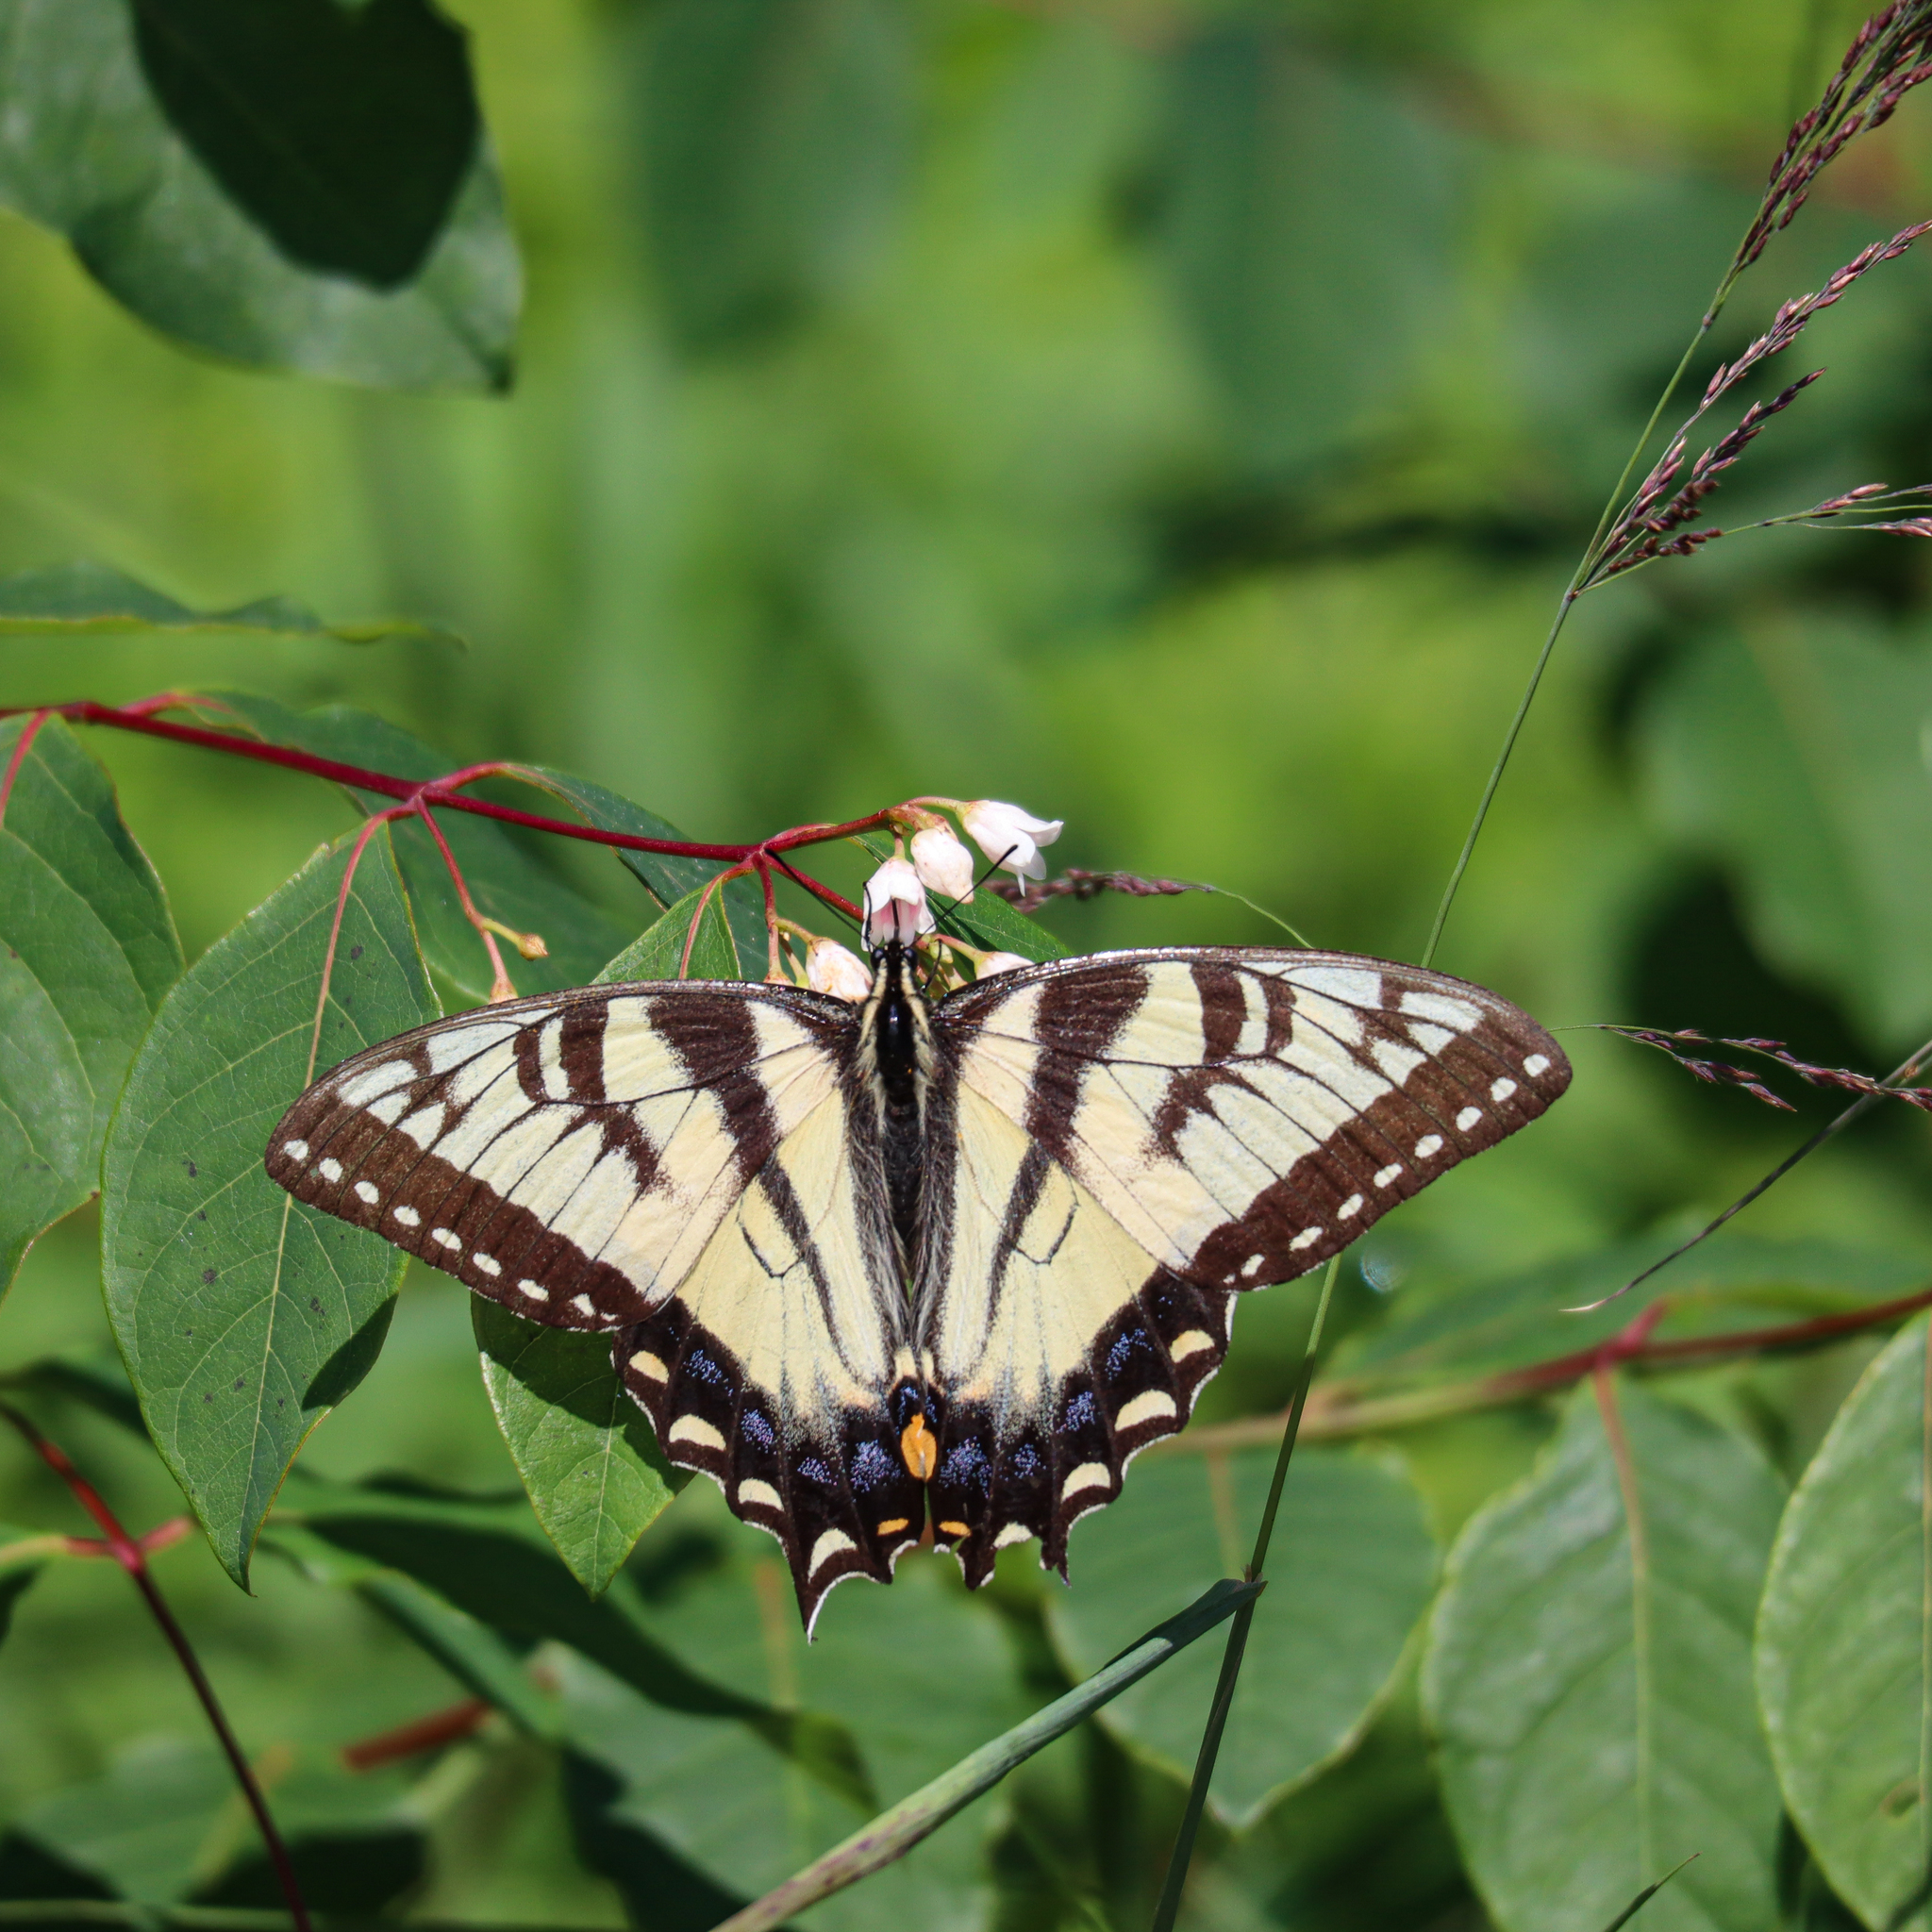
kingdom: Animalia
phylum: Arthropoda
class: Insecta
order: Lepidoptera
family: Papilionidae
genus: Papilio
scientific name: Papilio
